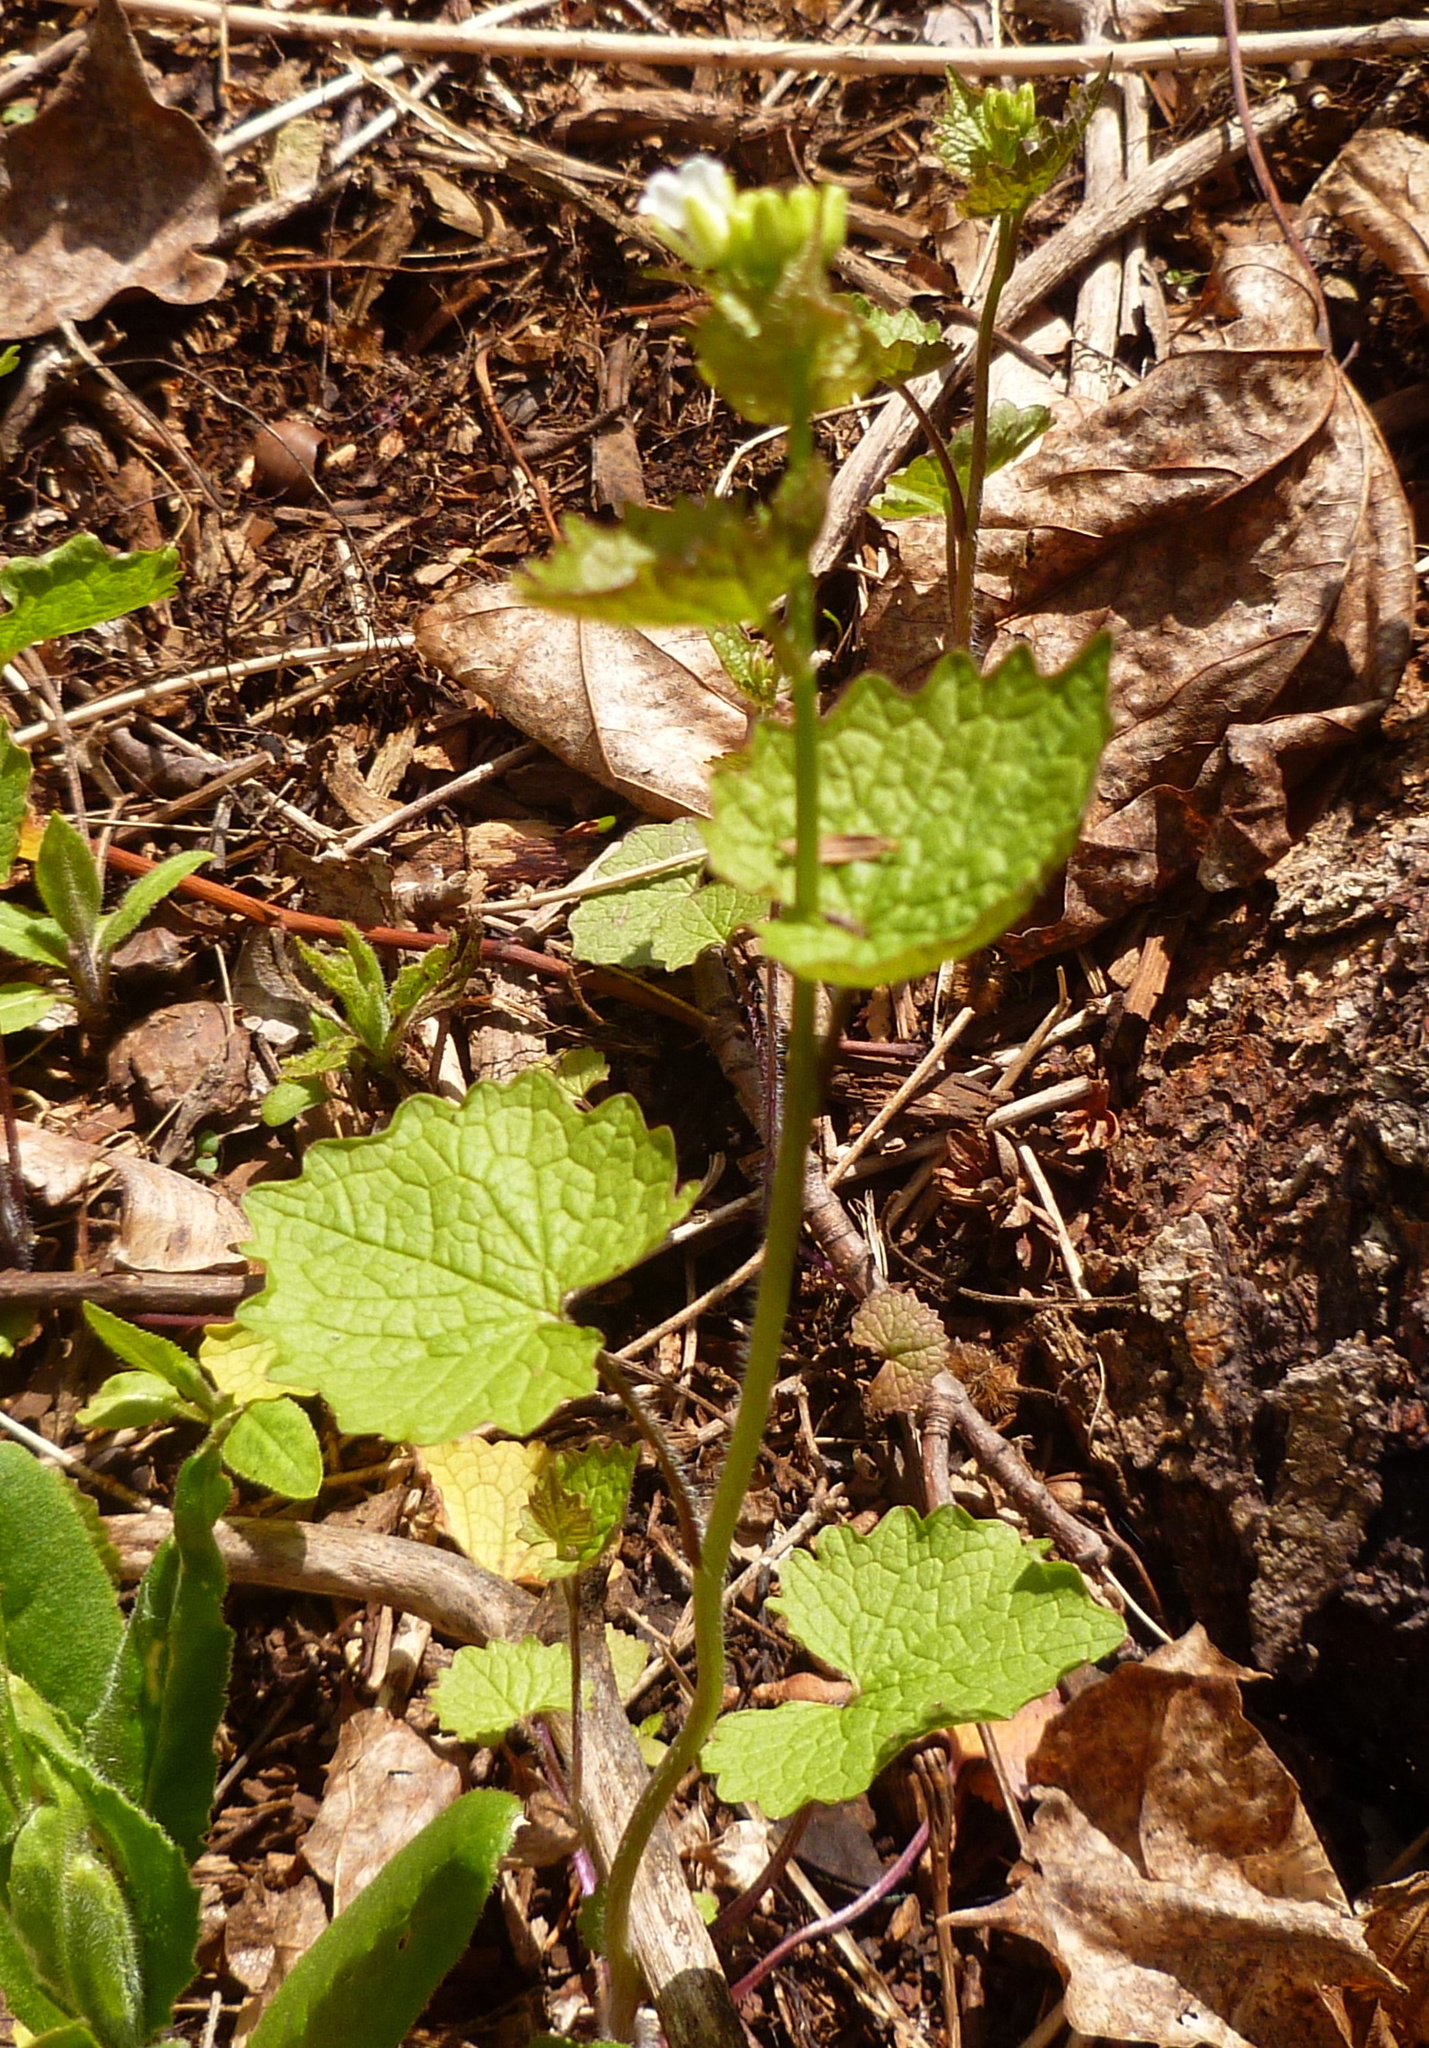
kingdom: Plantae
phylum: Tracheophyta
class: Magnoliopsida
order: Brassicales
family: Brassicaceae
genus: Alliaria
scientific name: Alliaria petiolata
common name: Garlic mustard
